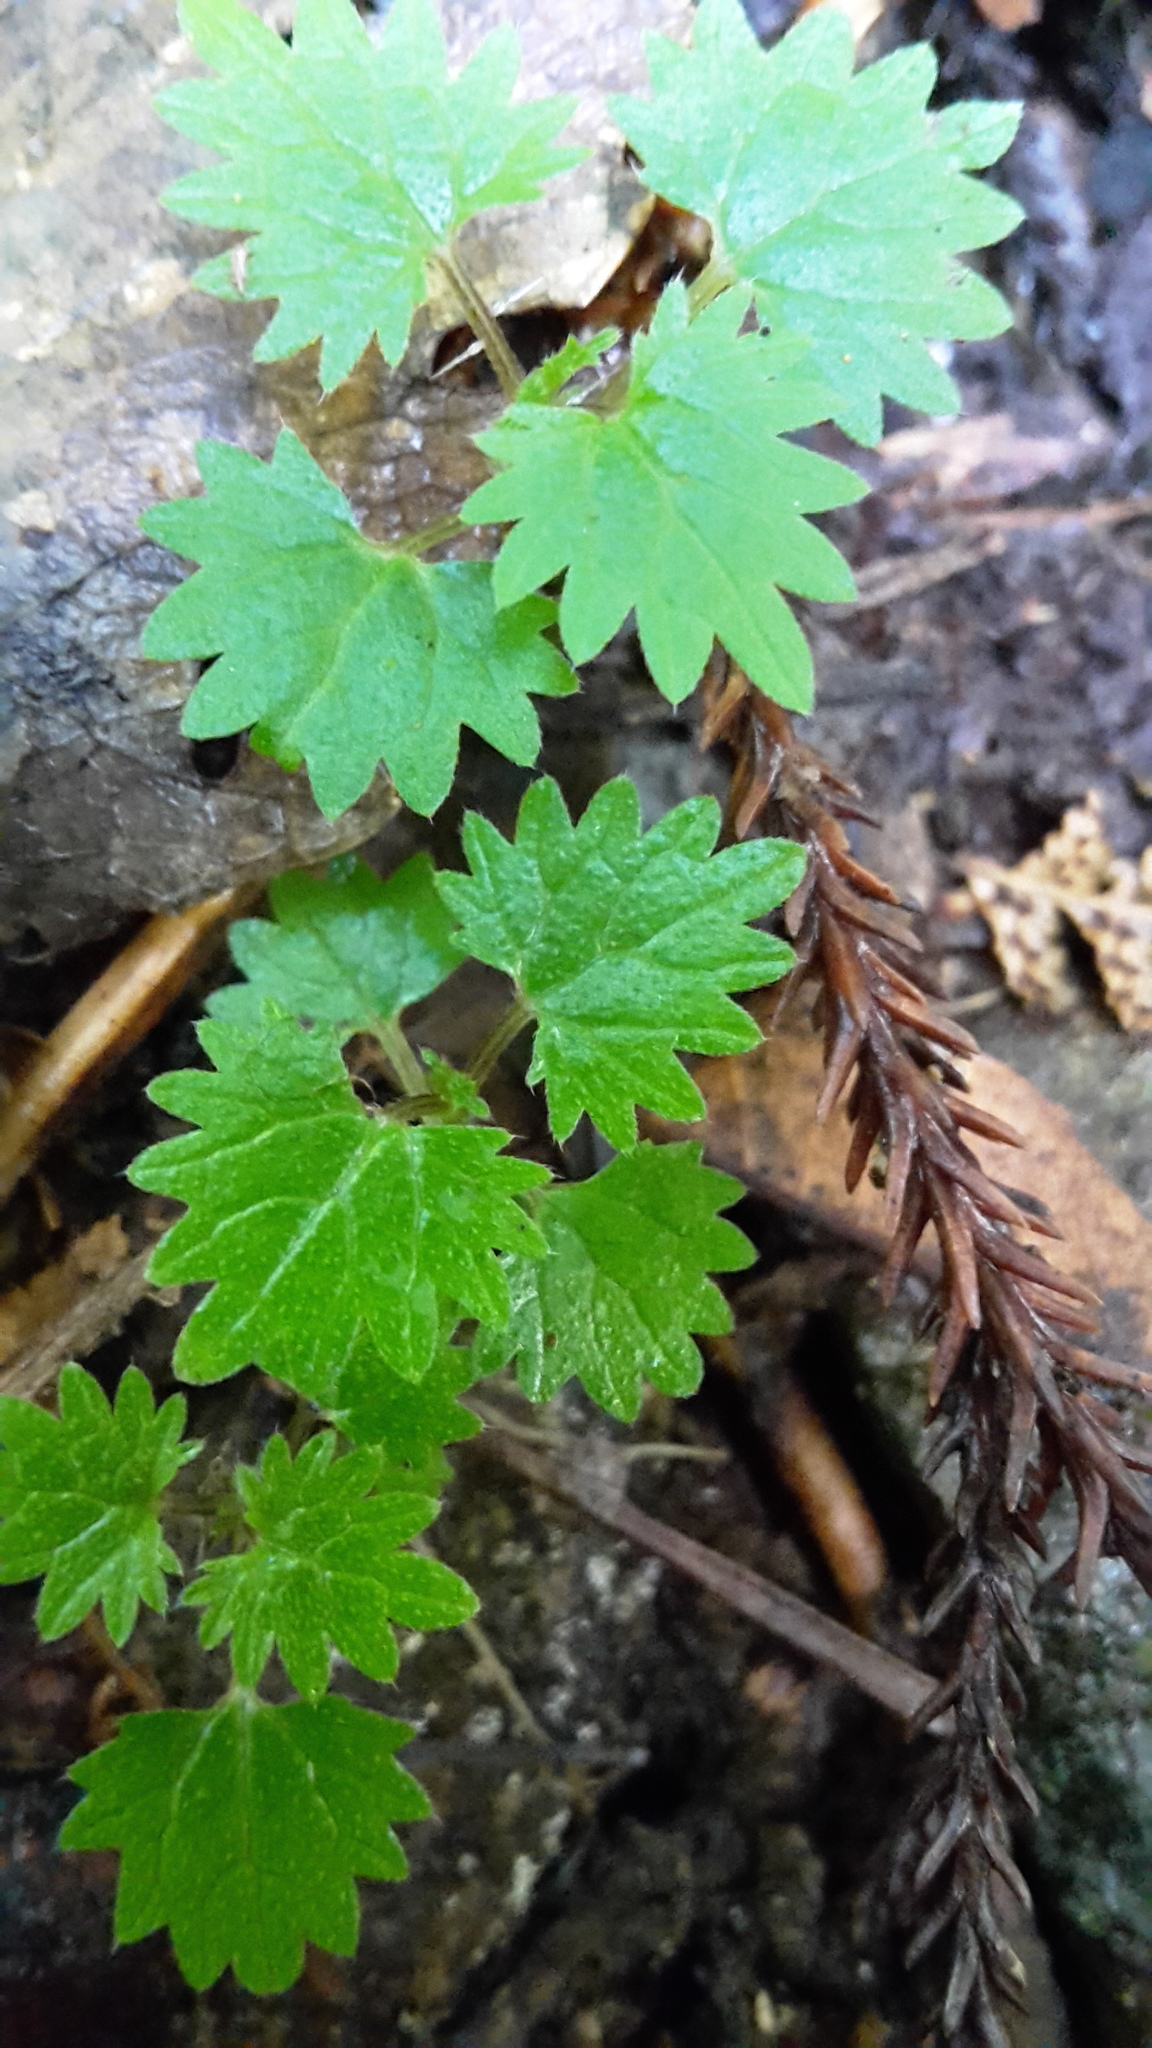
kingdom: Plantae
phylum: Tracheophyta
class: Magnoliopsida
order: Rosales
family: Urticaceae
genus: Urtica
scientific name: Urtica sykesii
